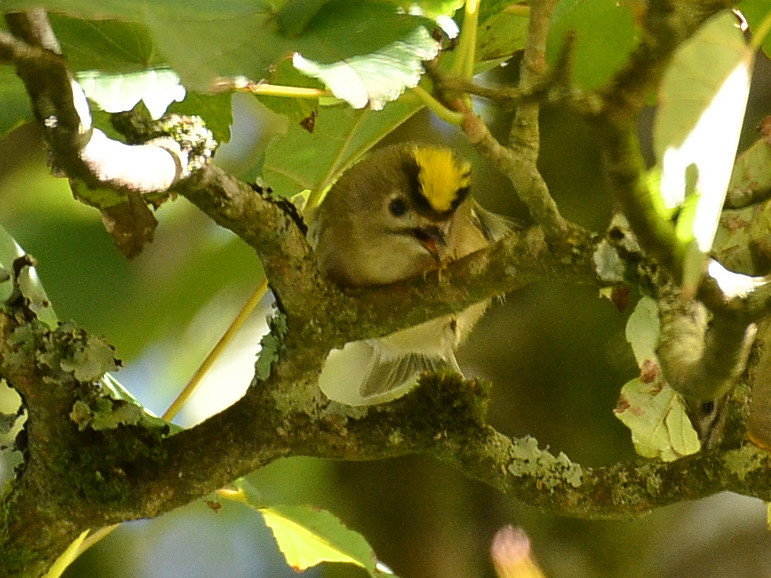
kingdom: Animalia
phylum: Chordata
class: Aves
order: Passeriformes
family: Regulidae
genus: Regulus
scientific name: Regulus regulus
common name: Goldcrest
